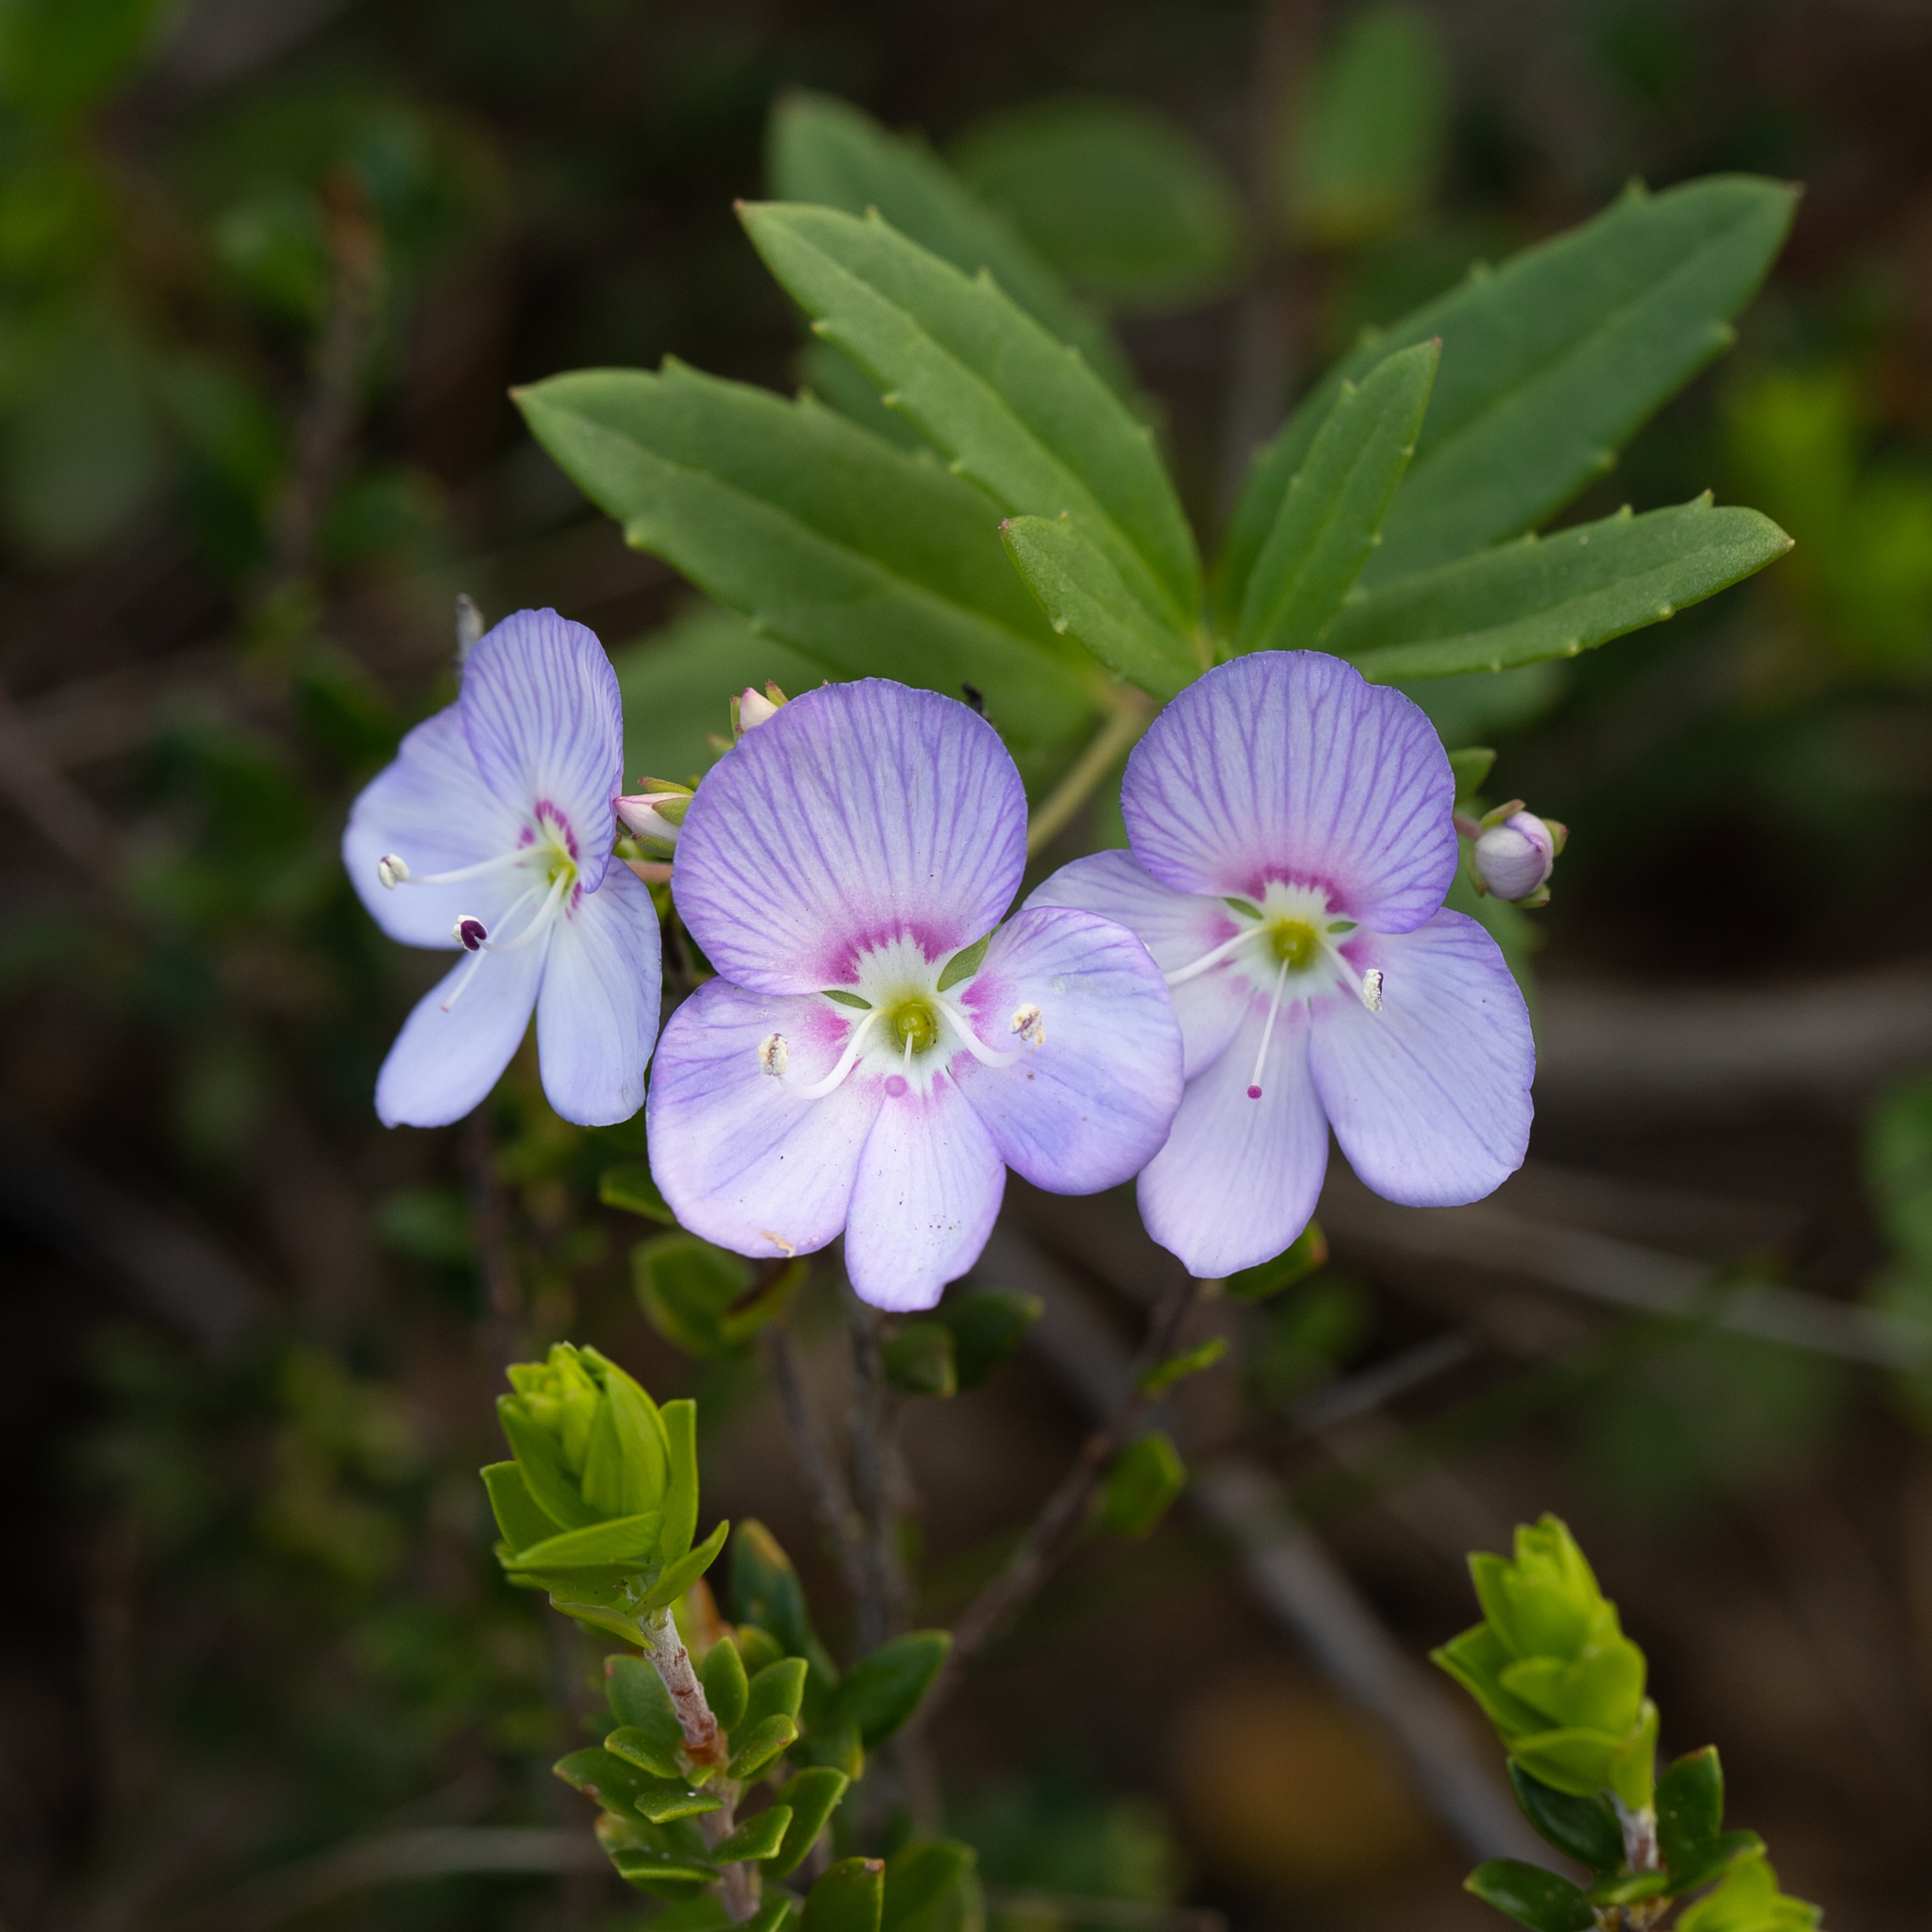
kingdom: Plantae
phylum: Tracheophyta
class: Magnoliopsida
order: Lamiales
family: Plantaginaceae
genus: Veronica
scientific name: Veronica hillebrandii
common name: Coast speedwell
